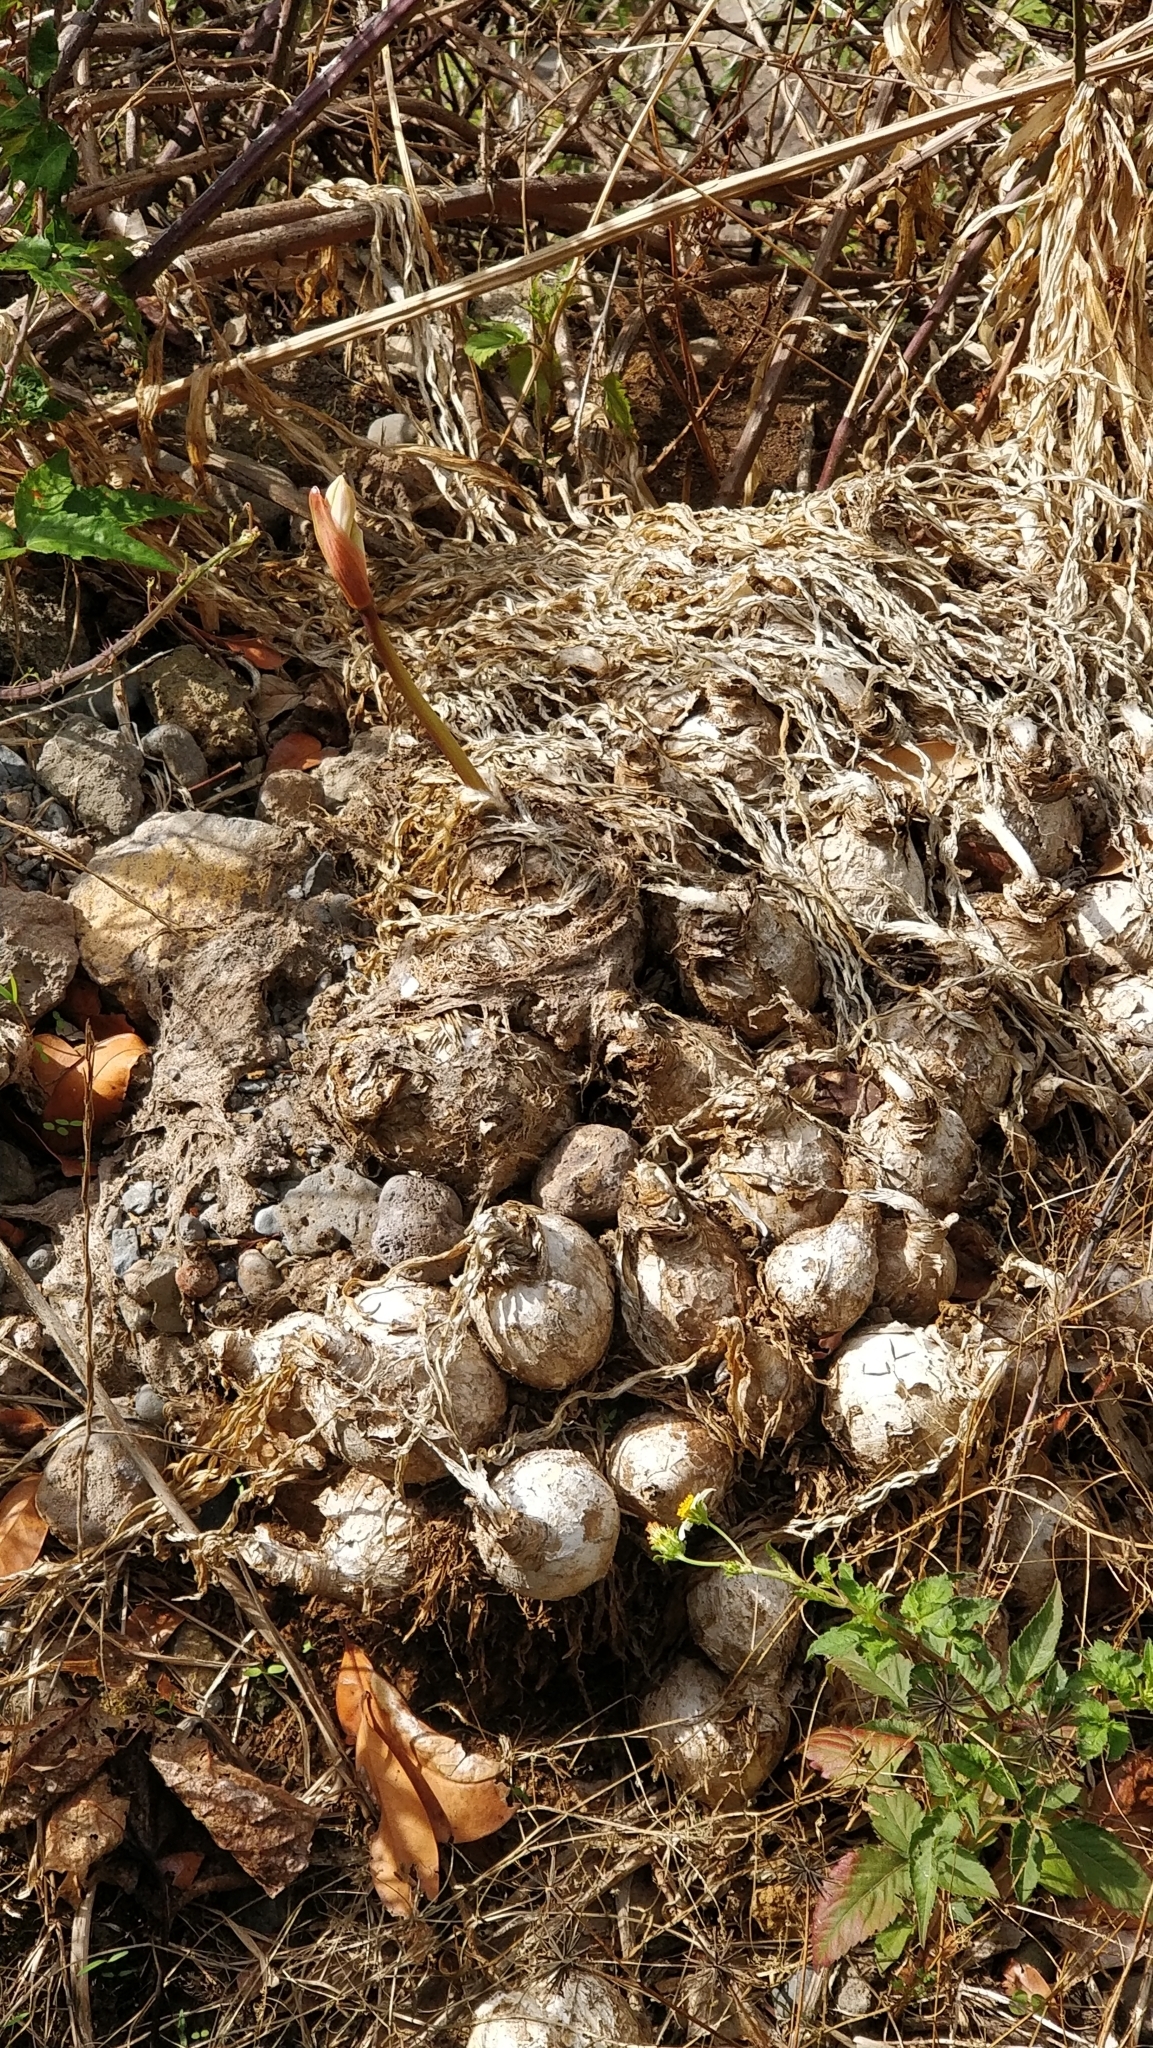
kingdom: Plantae
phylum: Tracheophyta
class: Liliopsida
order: Asparagales
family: Amaryllidaceae
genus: Amaryllis
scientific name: Amaryllis belladonna
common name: Jersey lily
